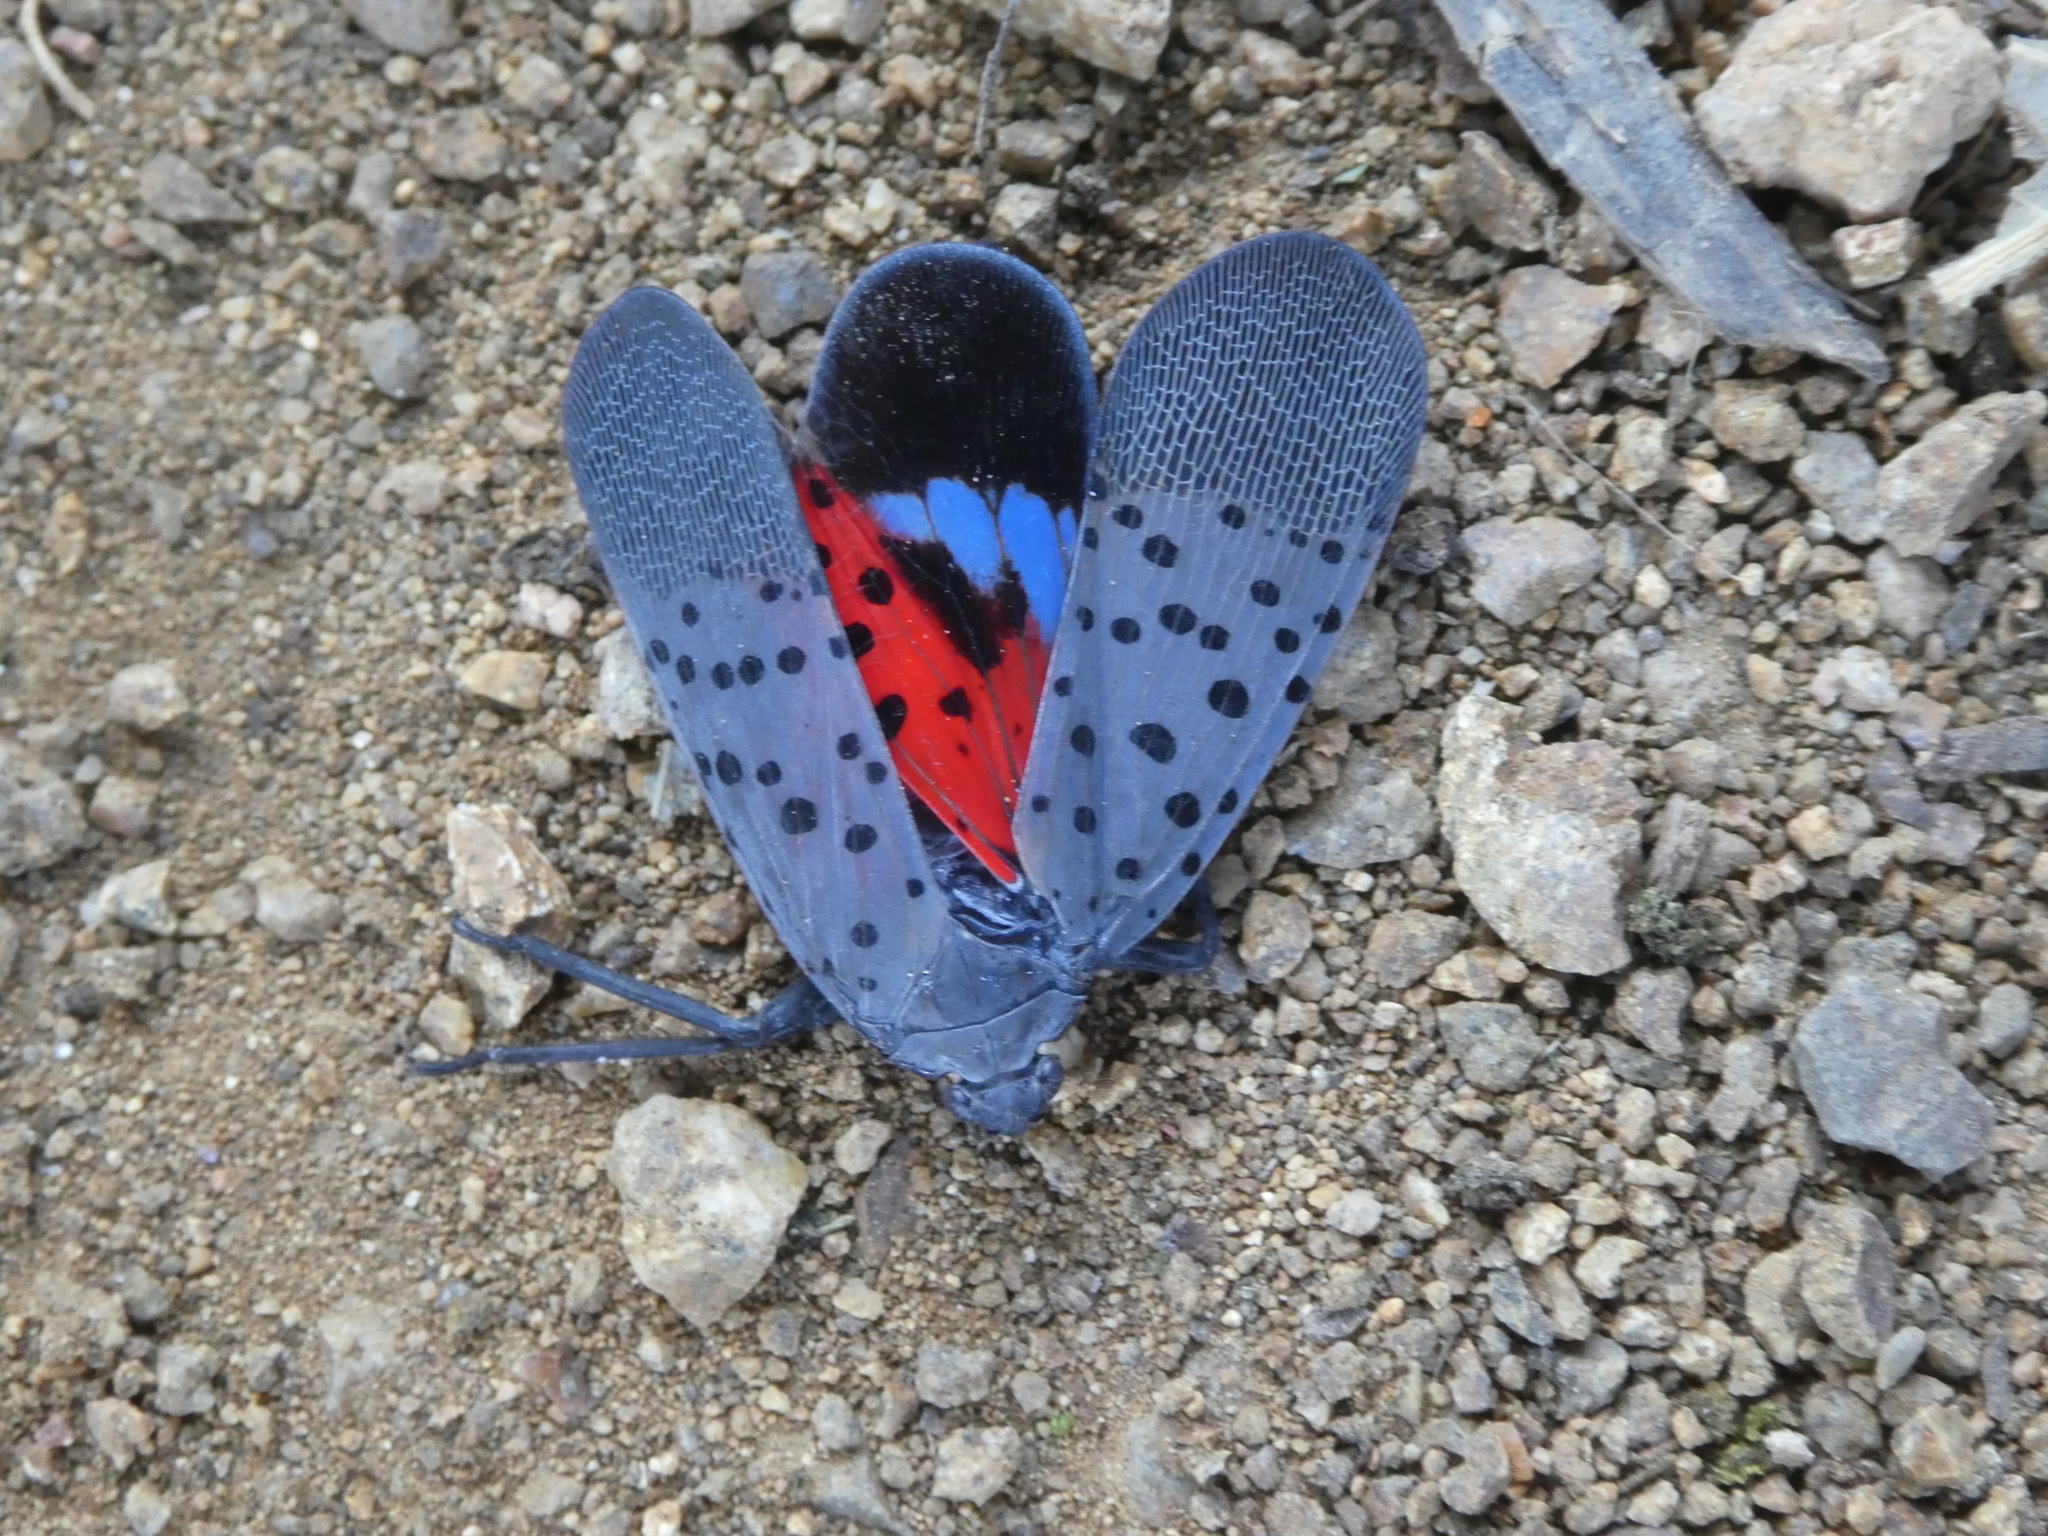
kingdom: Animalia
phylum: Arthropoda
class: Insecta
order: Hemiptera
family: Fulgoridae
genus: Lycorma
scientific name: Lycorma delicatula
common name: Spotted lanternfly
